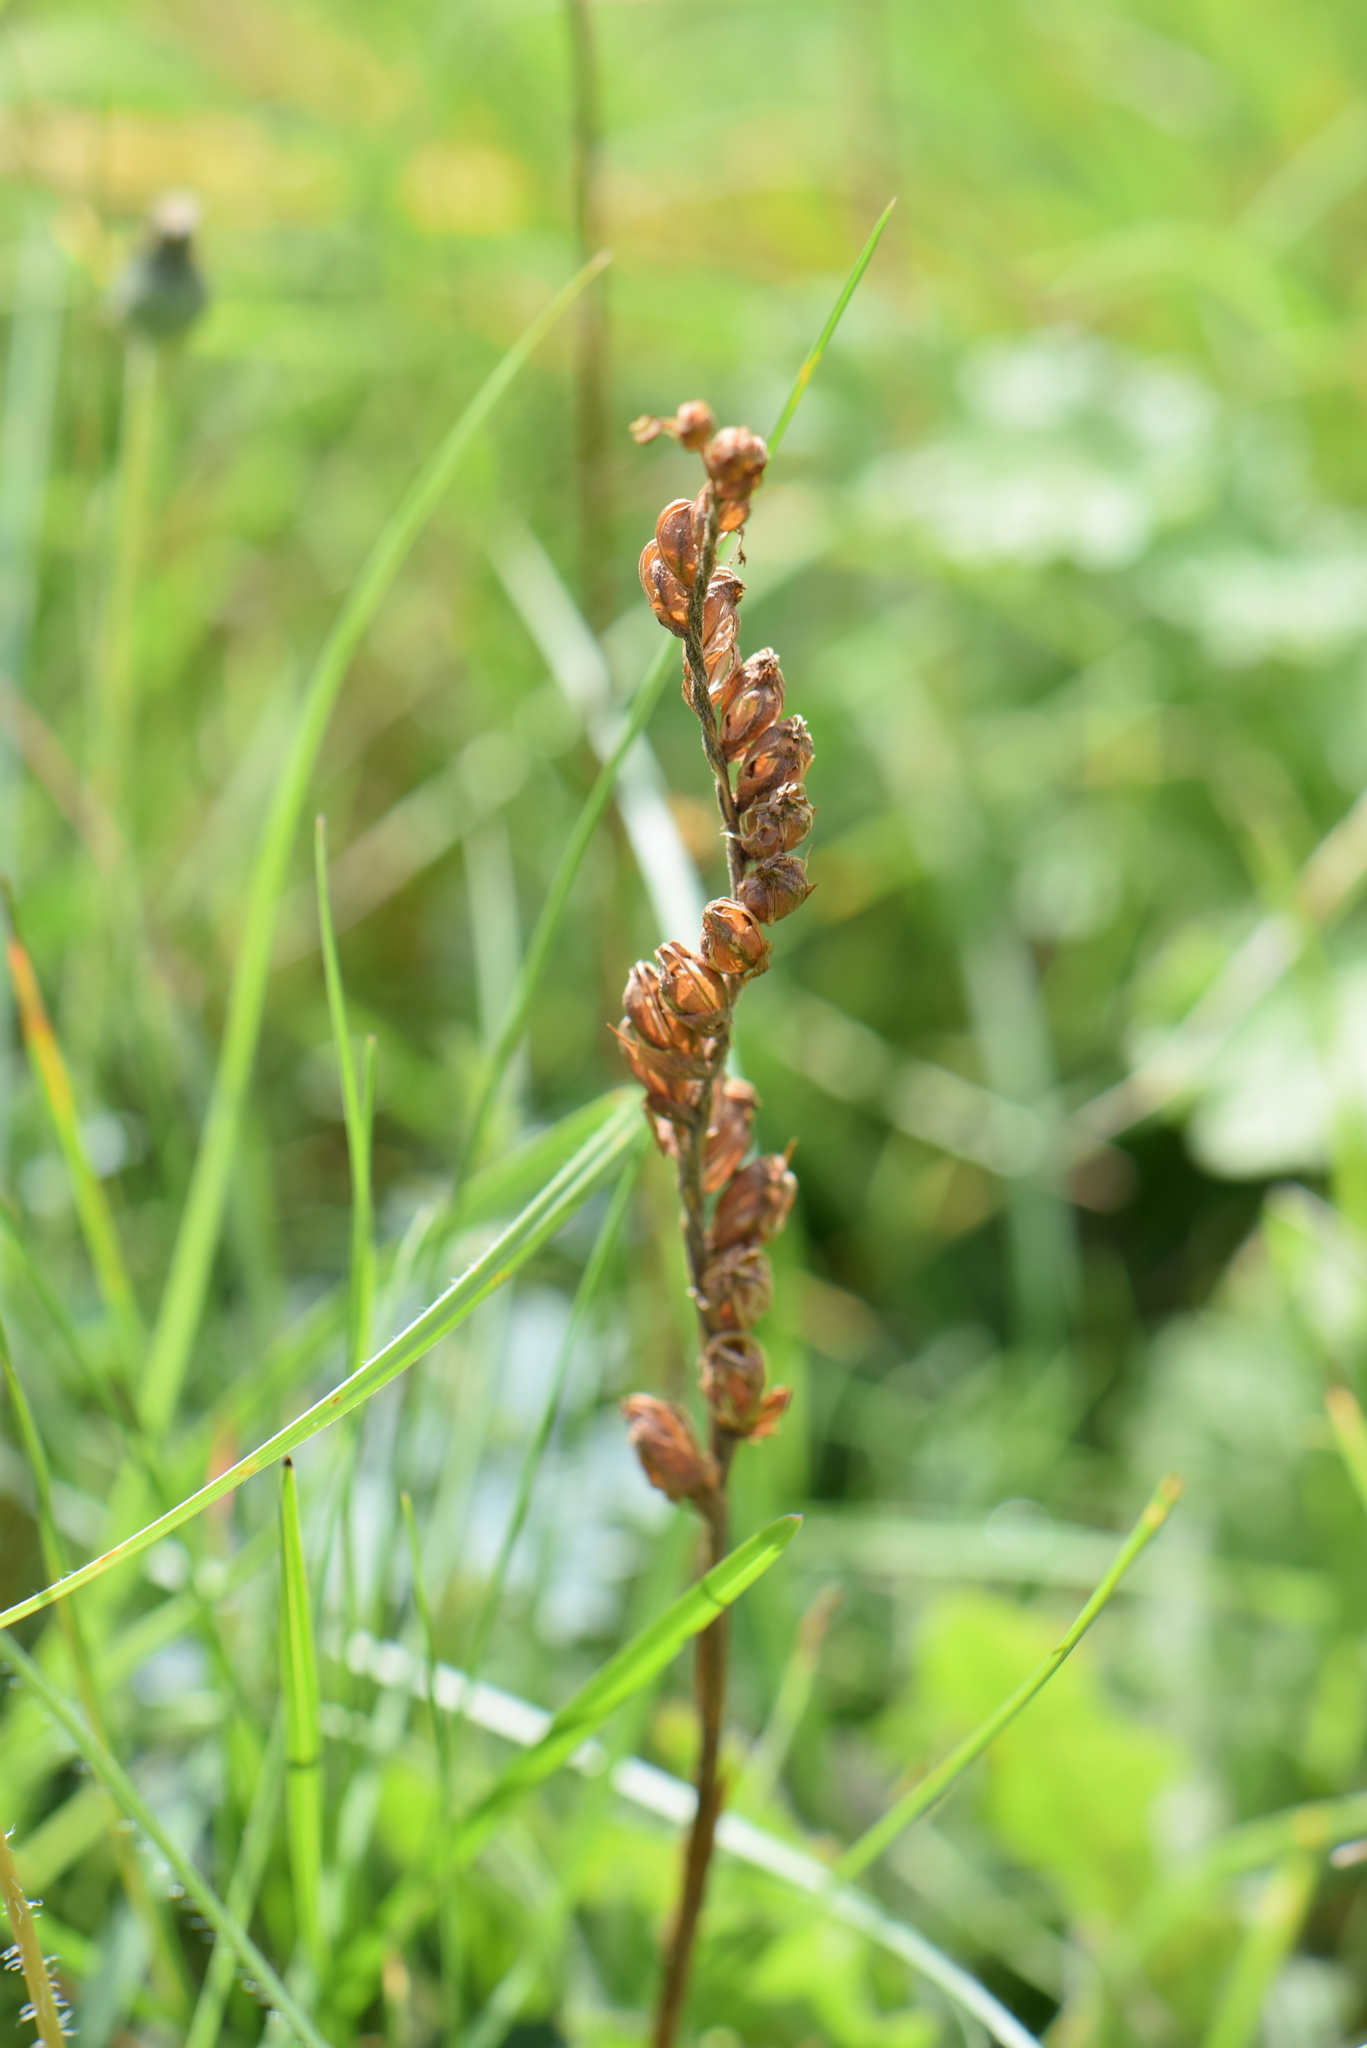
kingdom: Plantae
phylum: Tracheophyta
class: Liliopsida
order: Asparagales
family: Orchidaceae
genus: Spiranthes
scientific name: Spiranthes spiralis
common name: Autumn lady's-tresses
